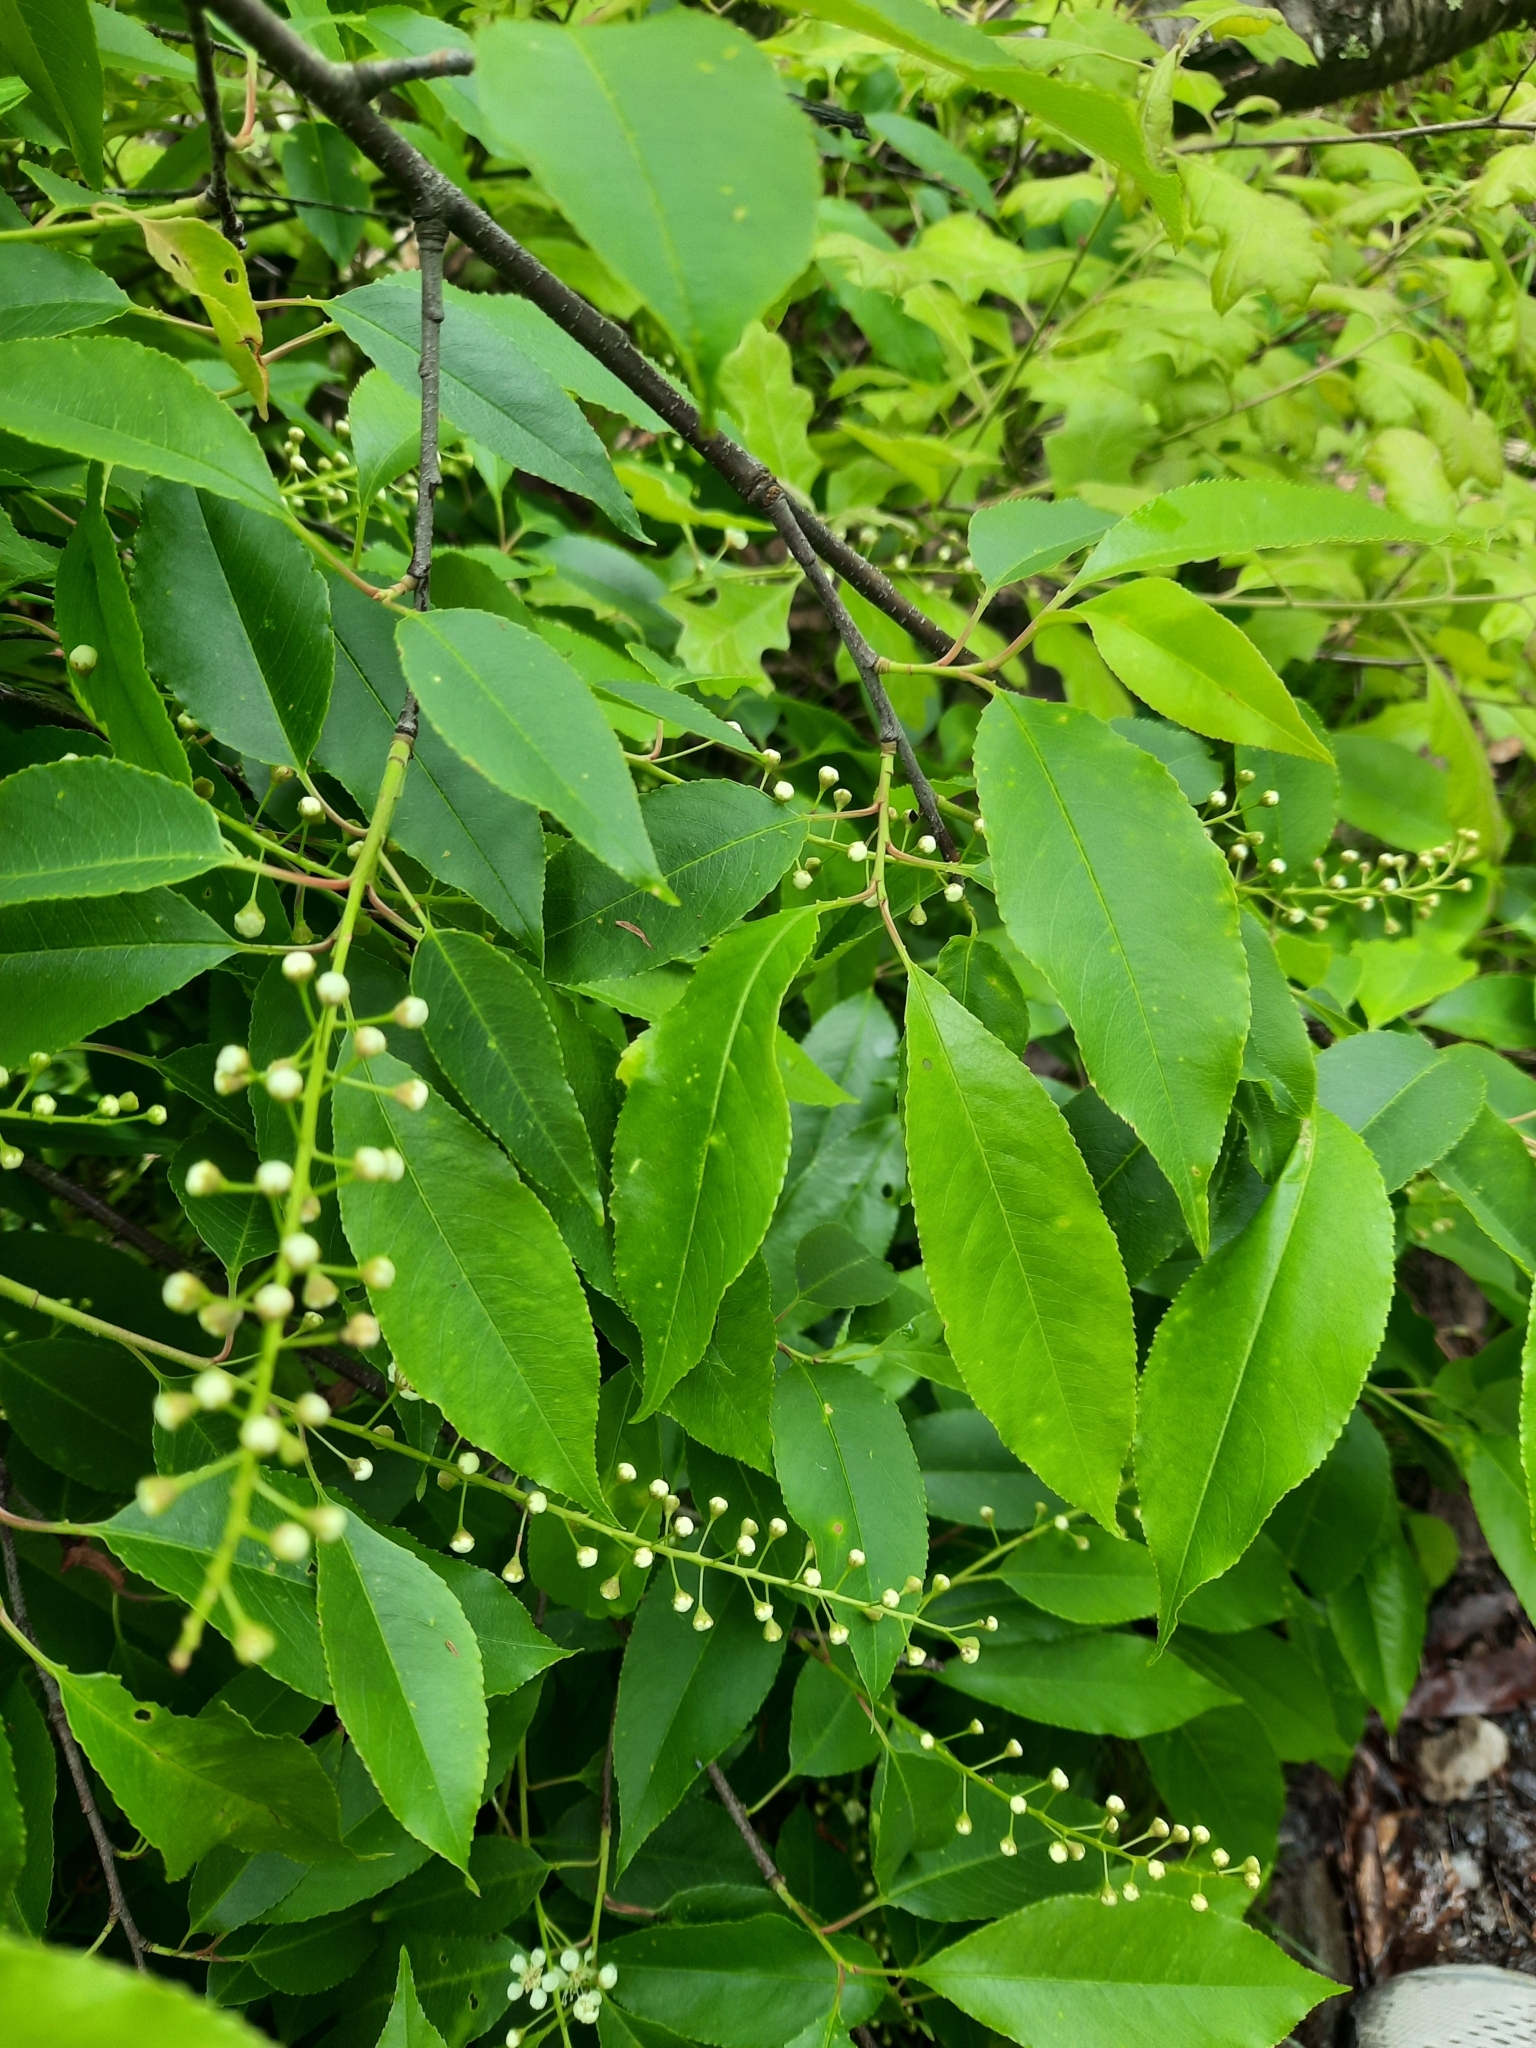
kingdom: Plantae
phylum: Tracheophyta
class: Magnoliopsida
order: Rosales
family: Rosaceae
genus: Prunus
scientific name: Prunus serotina
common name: Black cherry
